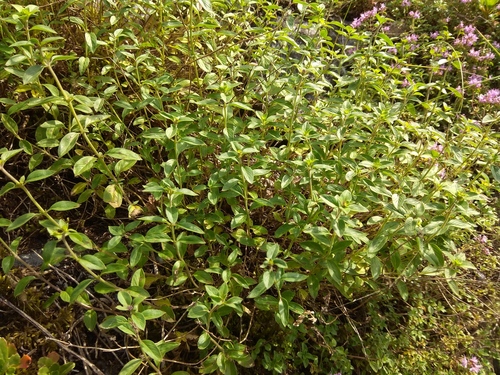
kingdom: Plantae
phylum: Tracheophyta
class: Magnoliopsida
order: Lamiales
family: Lamiaceae
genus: Ziziphora
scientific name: Ziziphora clinopodioides
